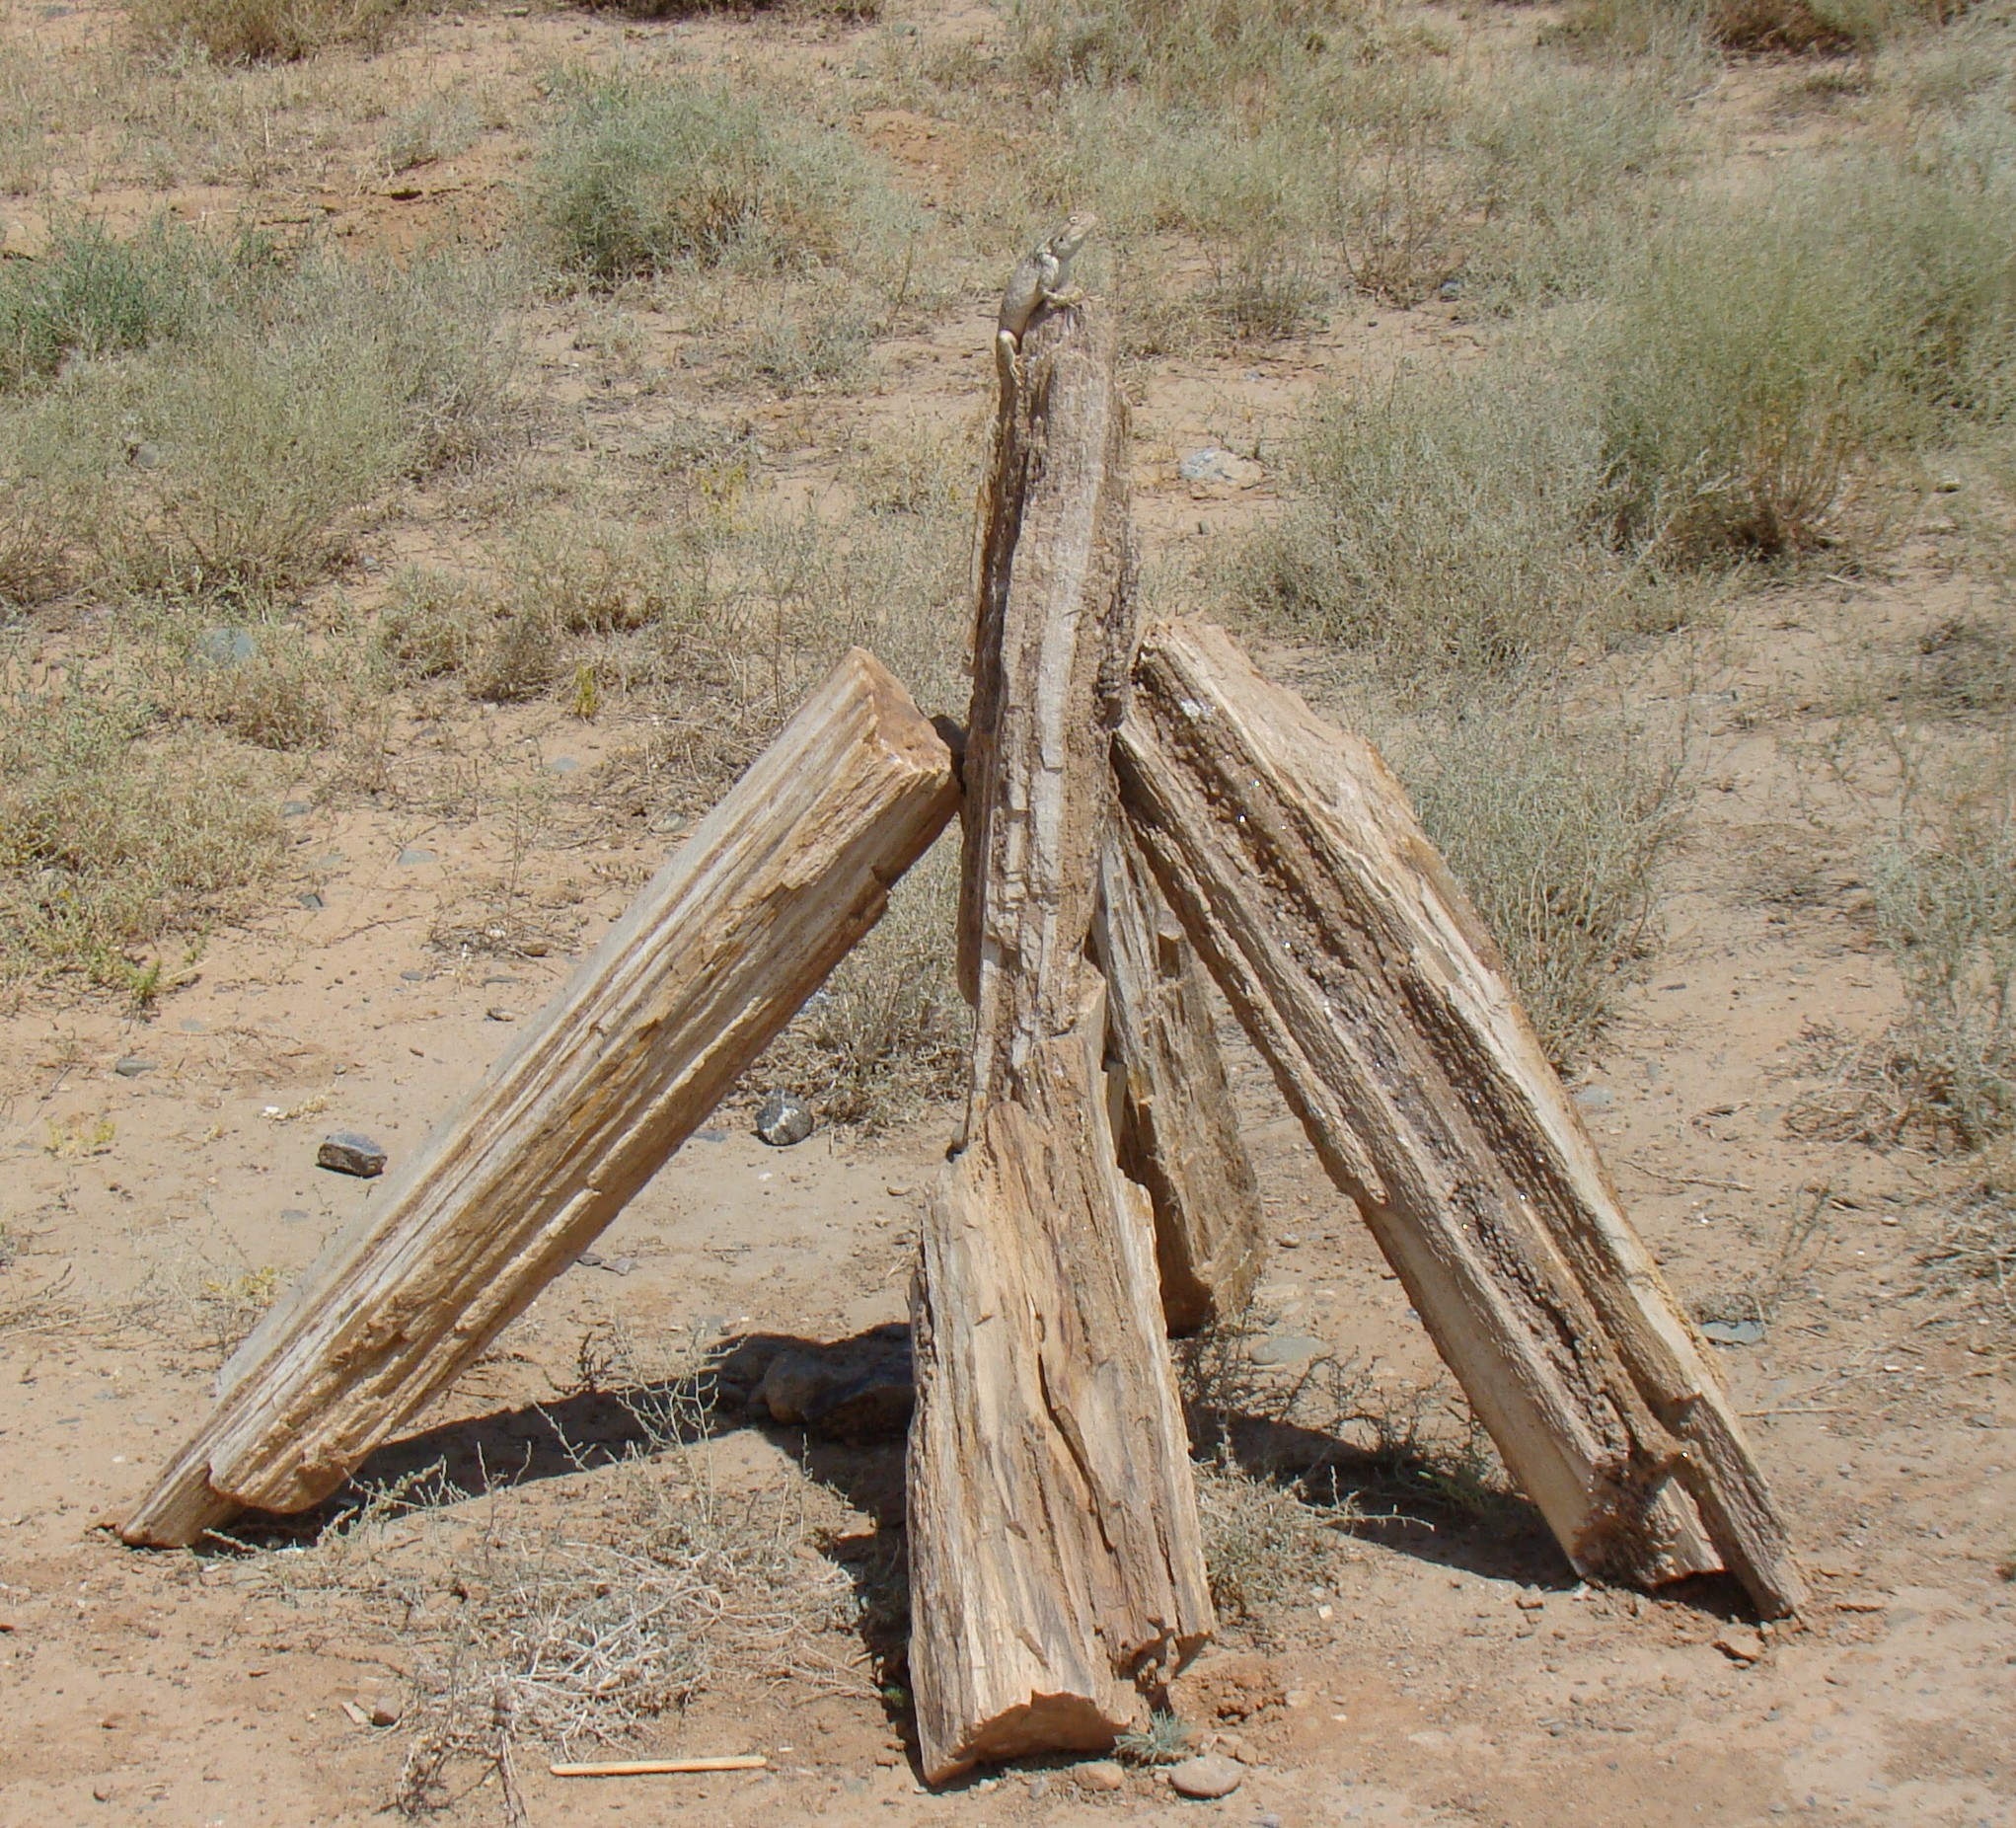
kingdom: Animalia
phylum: Chordata
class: Squamata
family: Agamidae
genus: Trapelus
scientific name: Trapelus sanguinolentus
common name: Steppe agama
